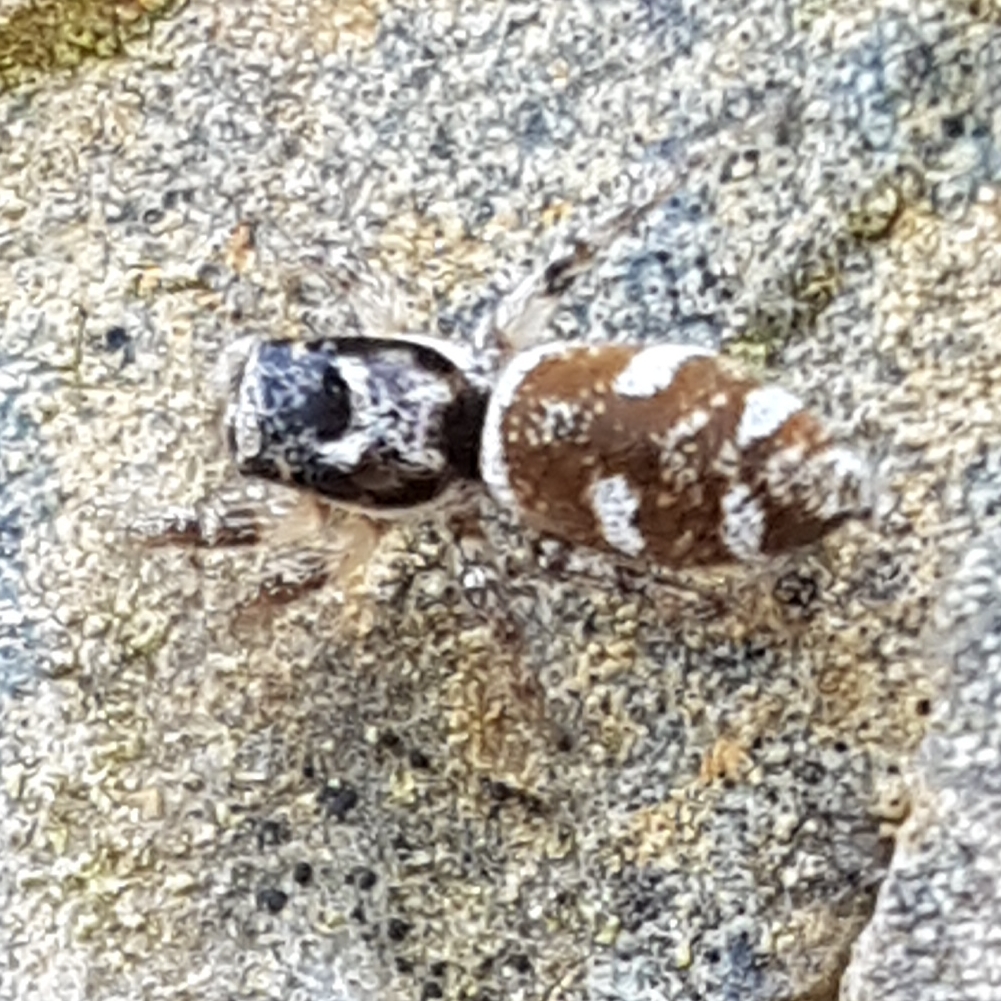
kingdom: Animalia
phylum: Arthropoda
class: Arachnida
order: Araneae
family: Salticidae
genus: Salticus
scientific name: Salticus scenicus
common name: Zebra jumper
